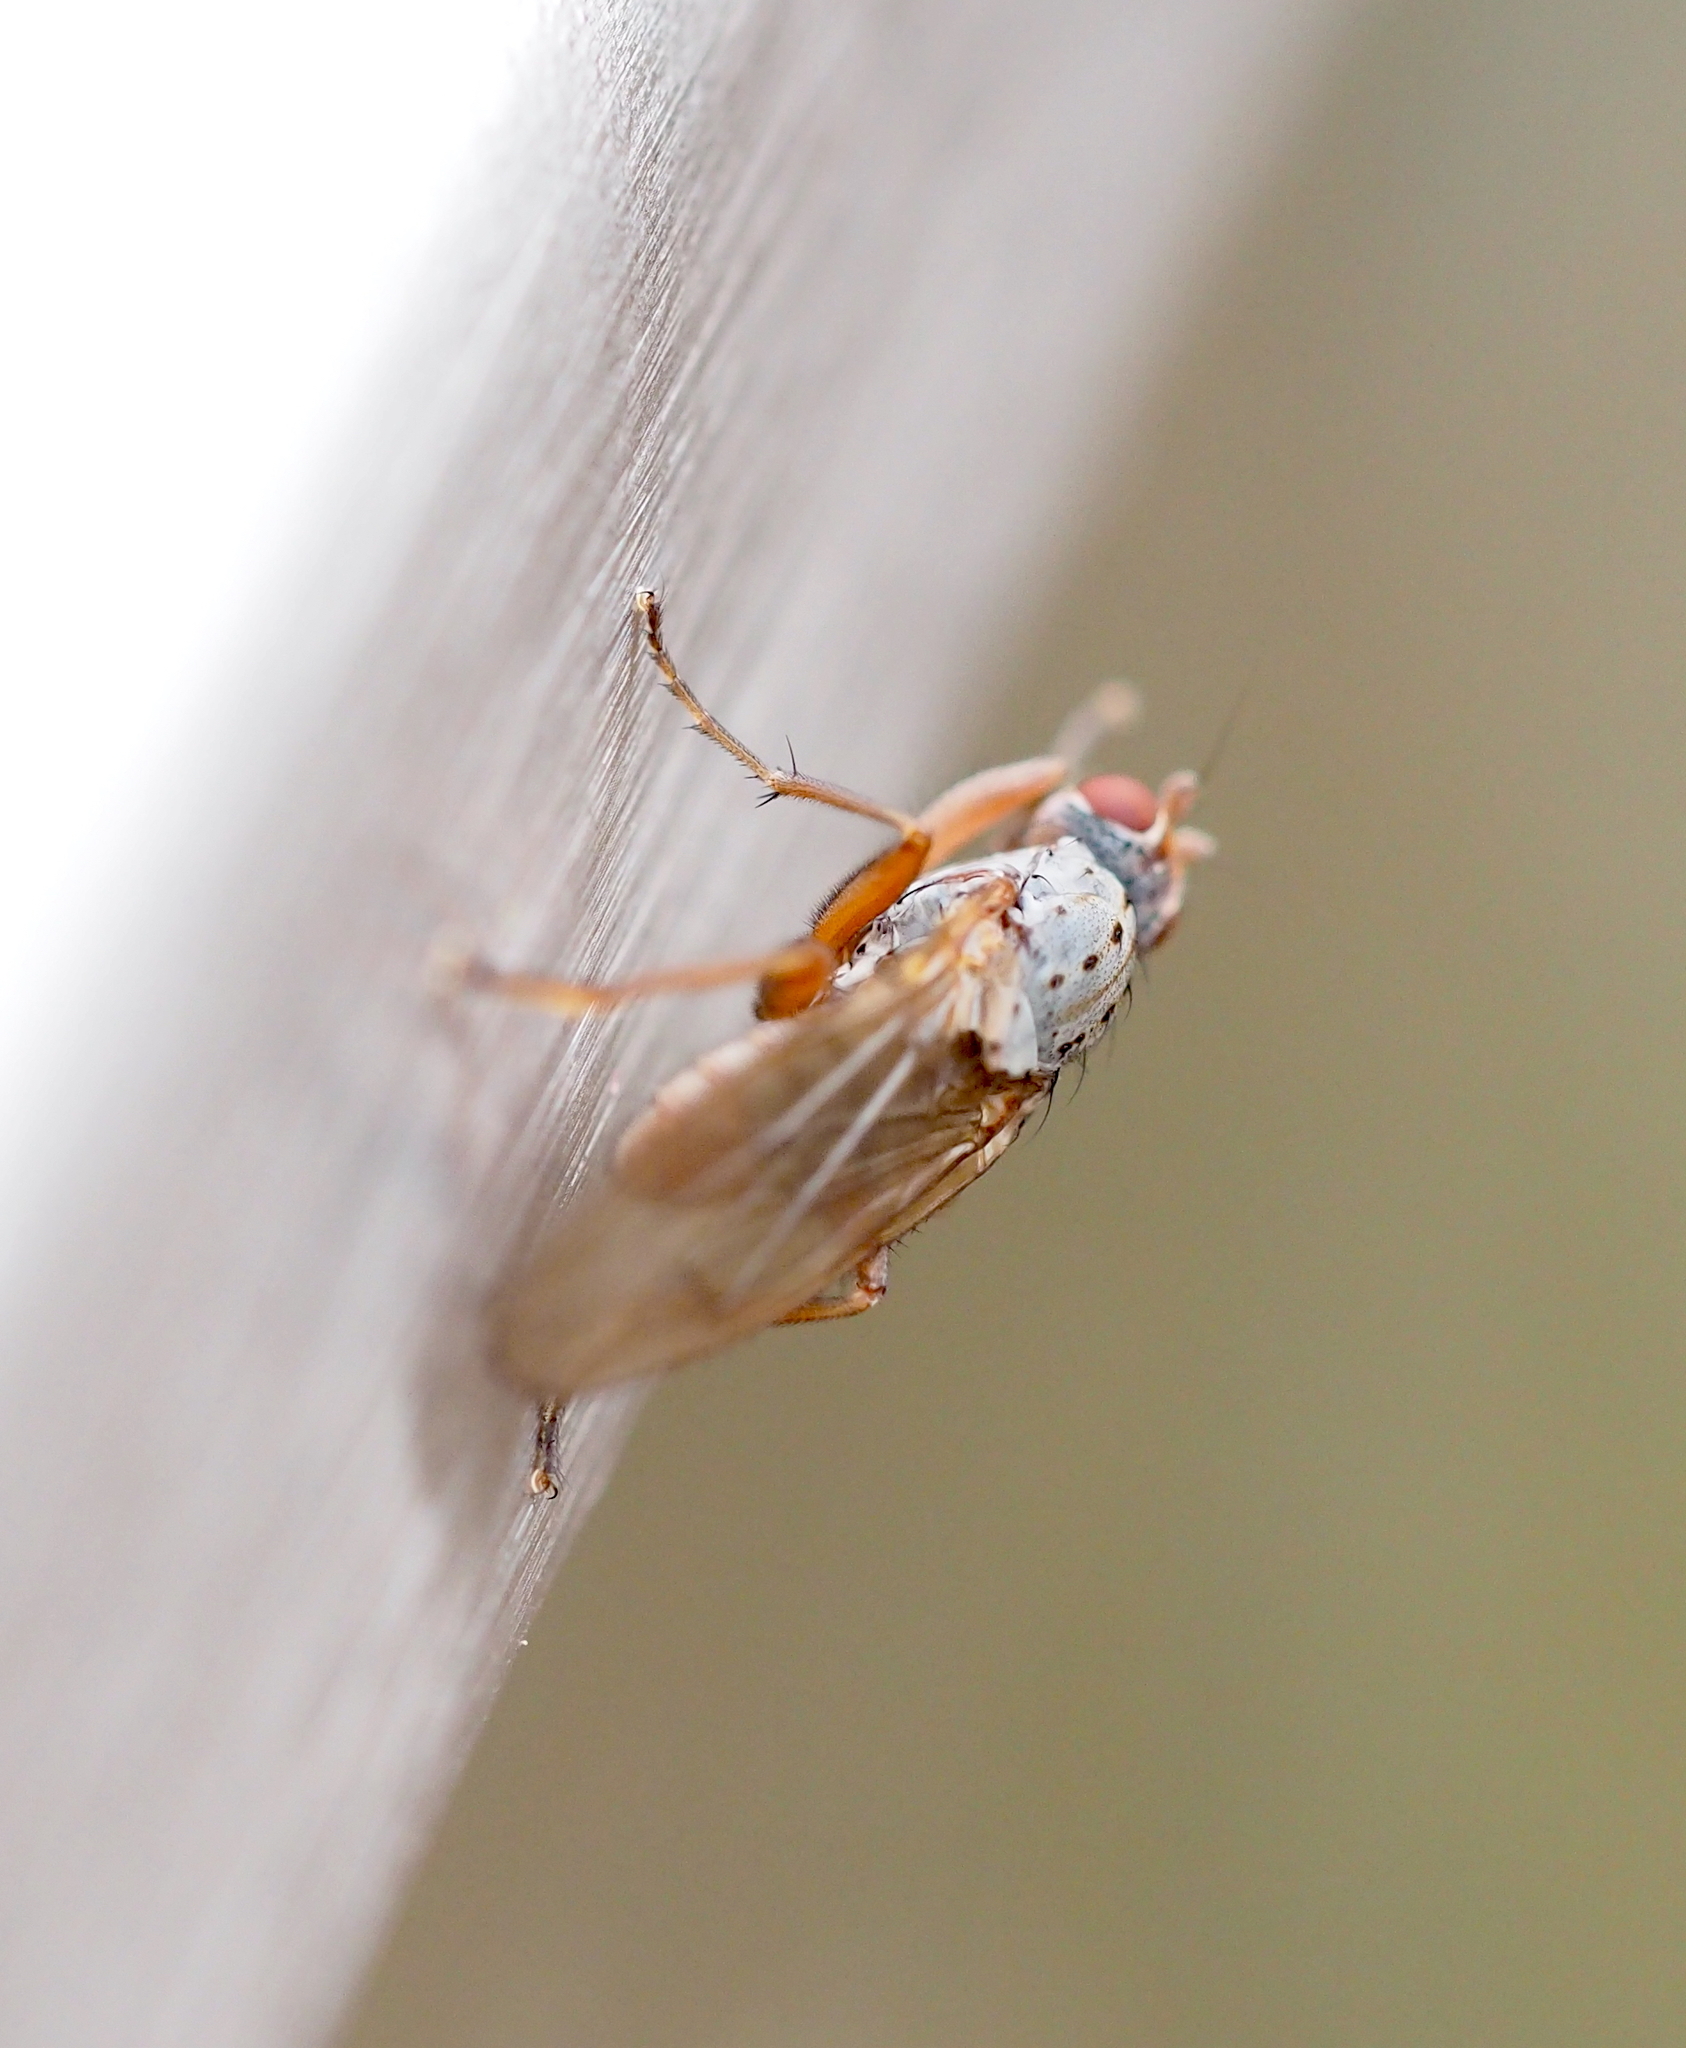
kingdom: Animalia
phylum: Arthropoda
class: Insecta
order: Diptera
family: Heleomyzidae
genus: Amoebaleria
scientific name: Amoebaleria caesia
